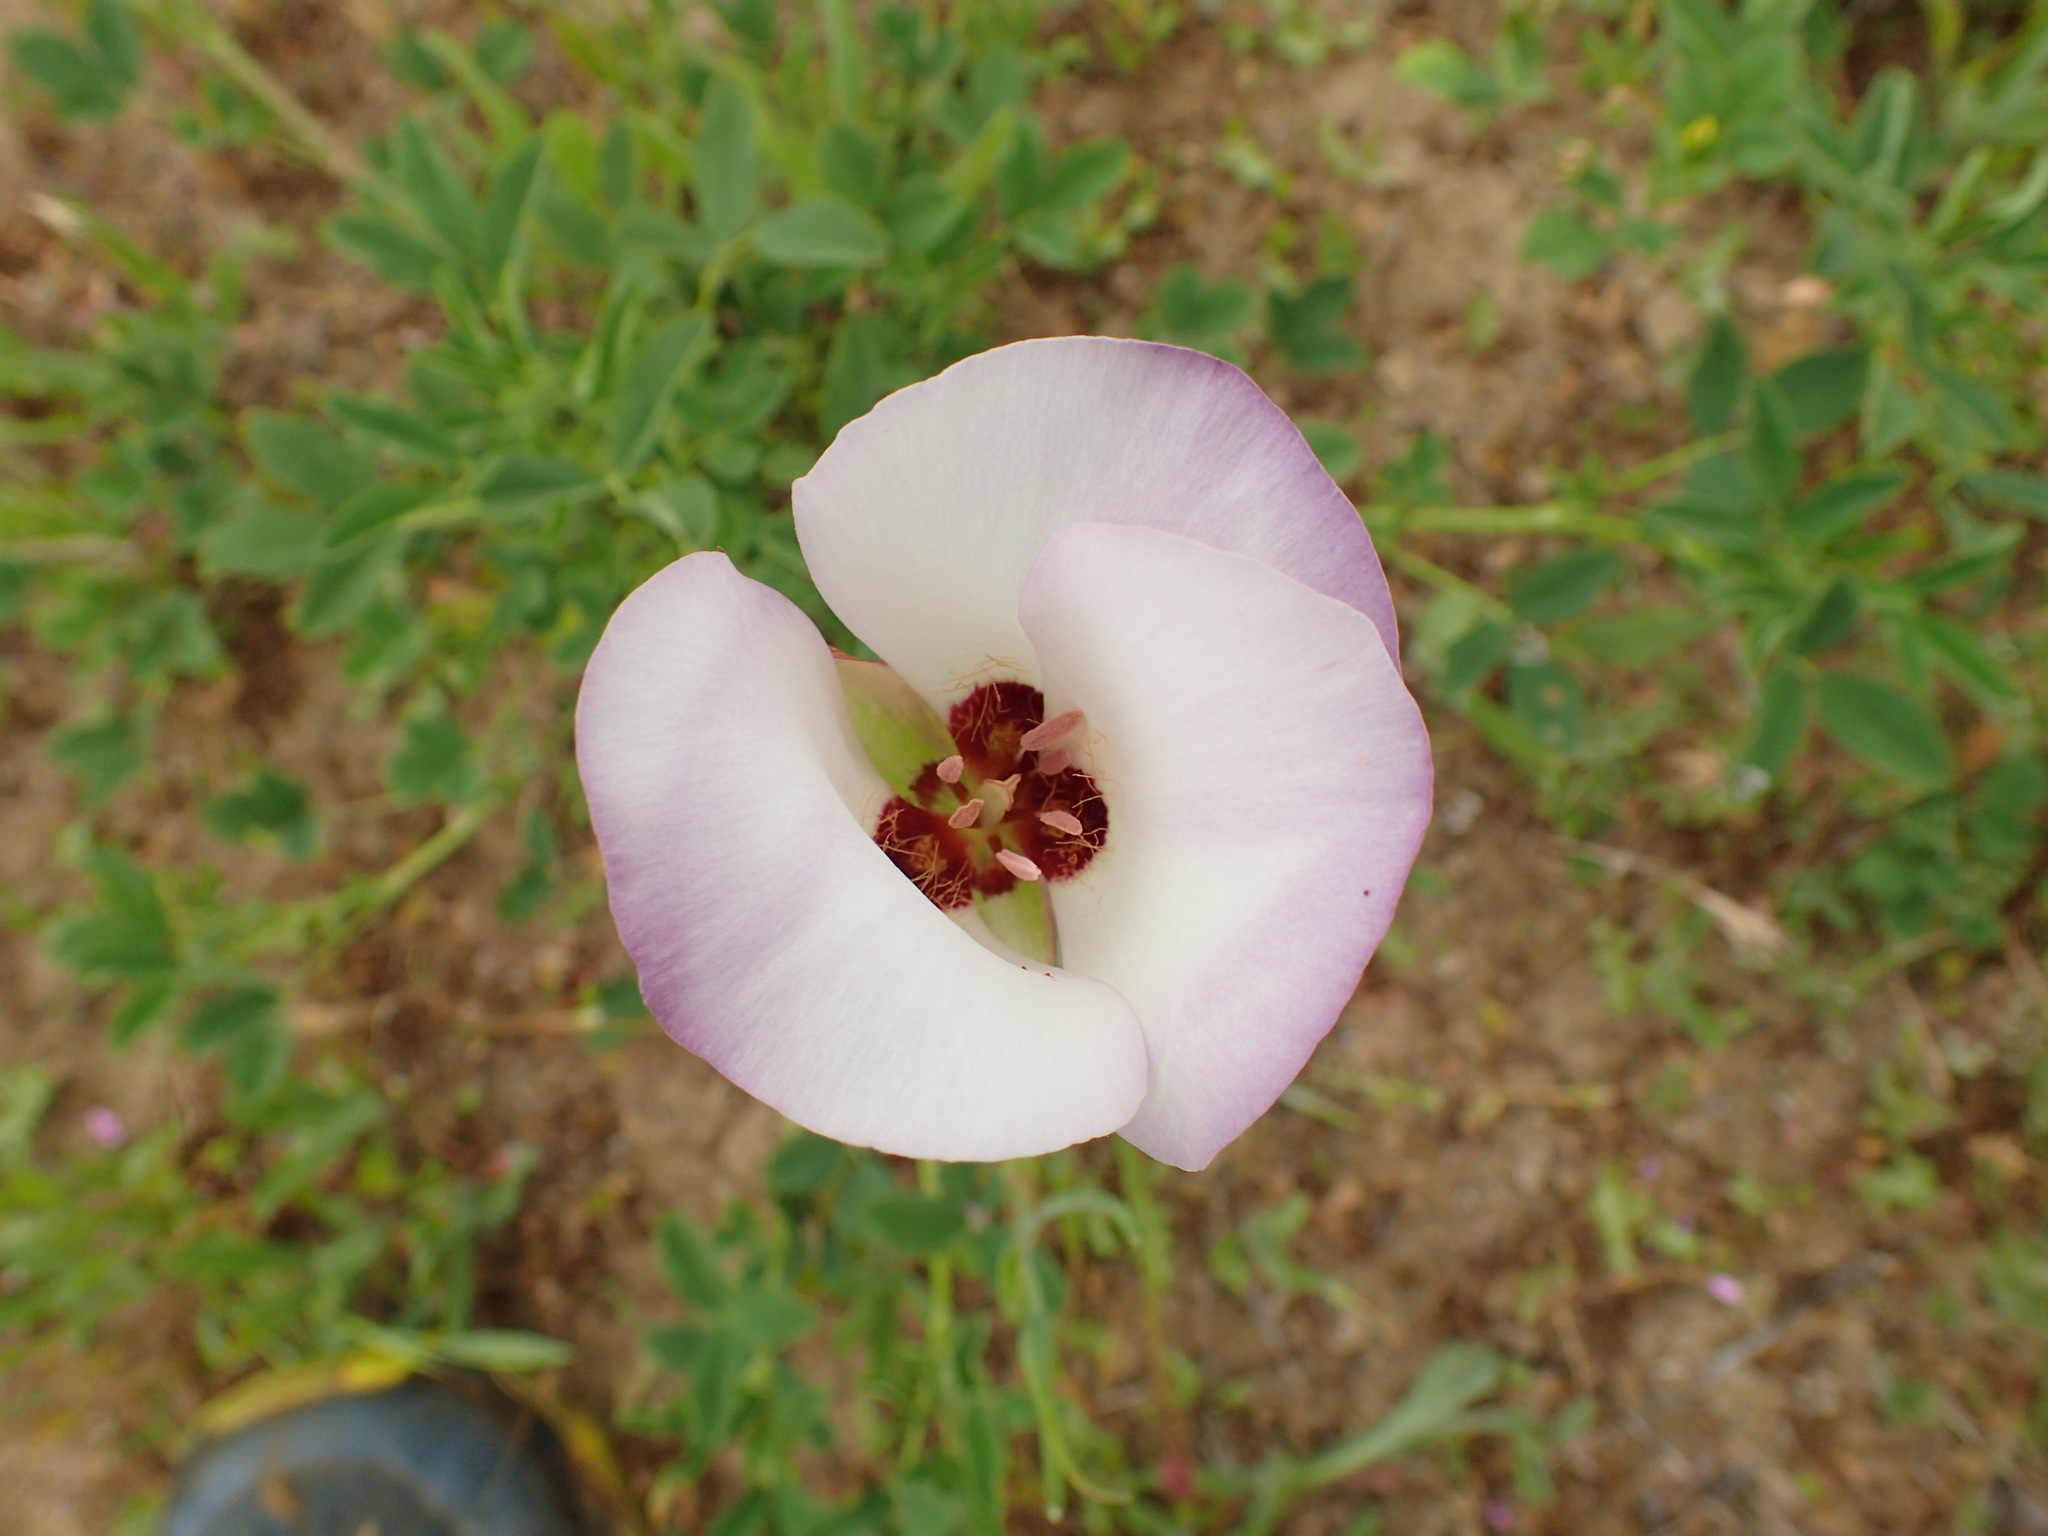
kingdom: Plantae
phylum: Tracheophyta
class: Liliopsida
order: Liliales
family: Liliaceae
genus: Calochortus
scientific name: Calochortus catalinae
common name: Catalina mariposa-lily
